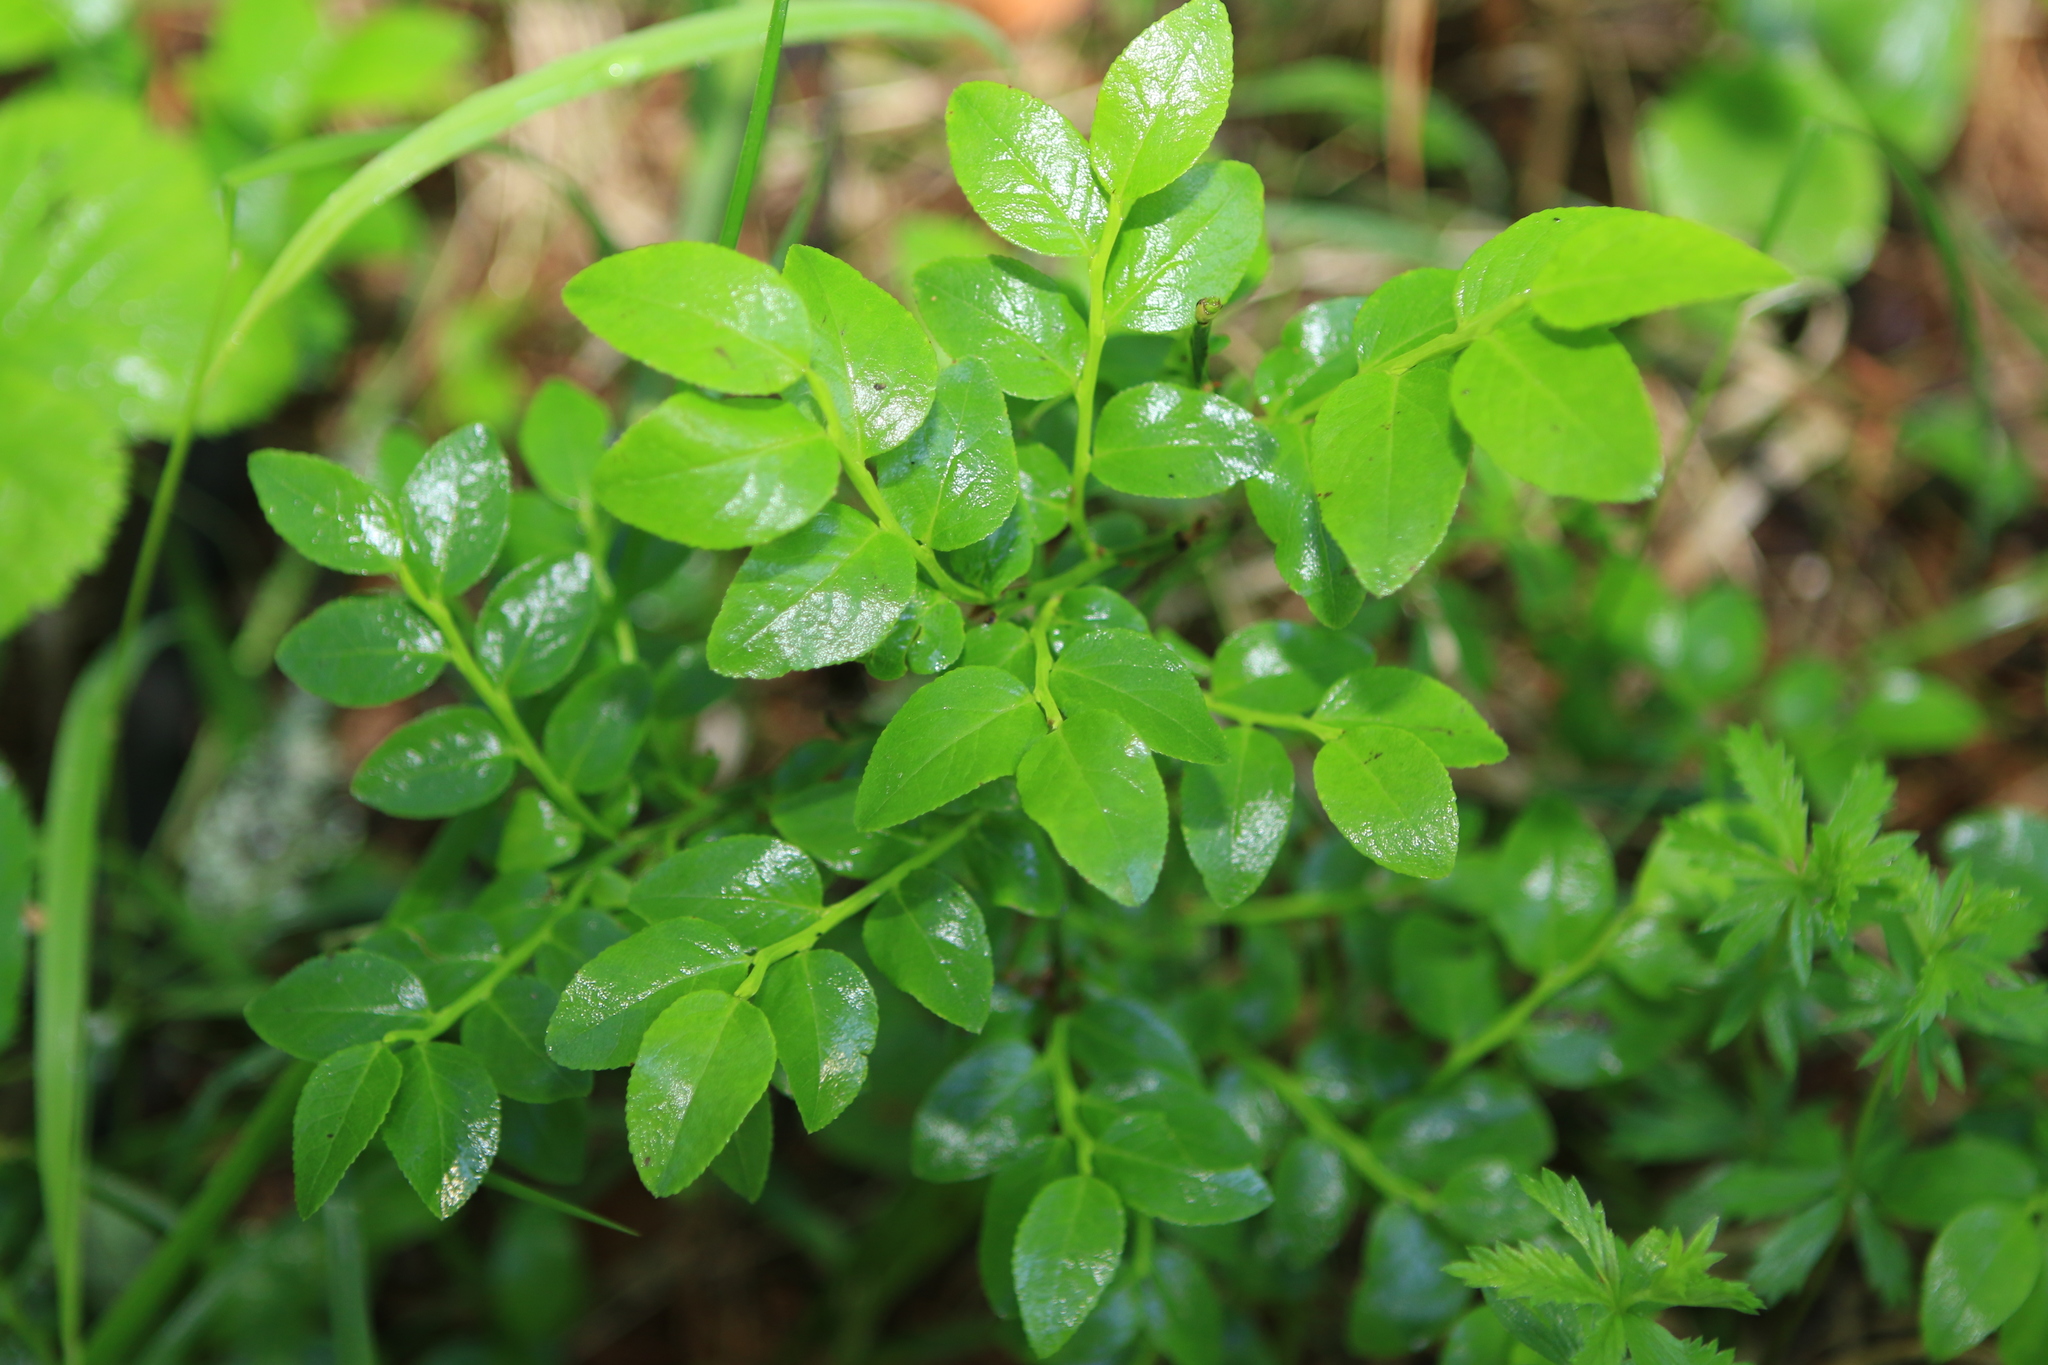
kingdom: Plantae
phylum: Tracheophyta
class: Magnoliopsida
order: Ericales
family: Ericaceae
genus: Vaccinium
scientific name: Vaccinium myrtillus
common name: Bilberry
